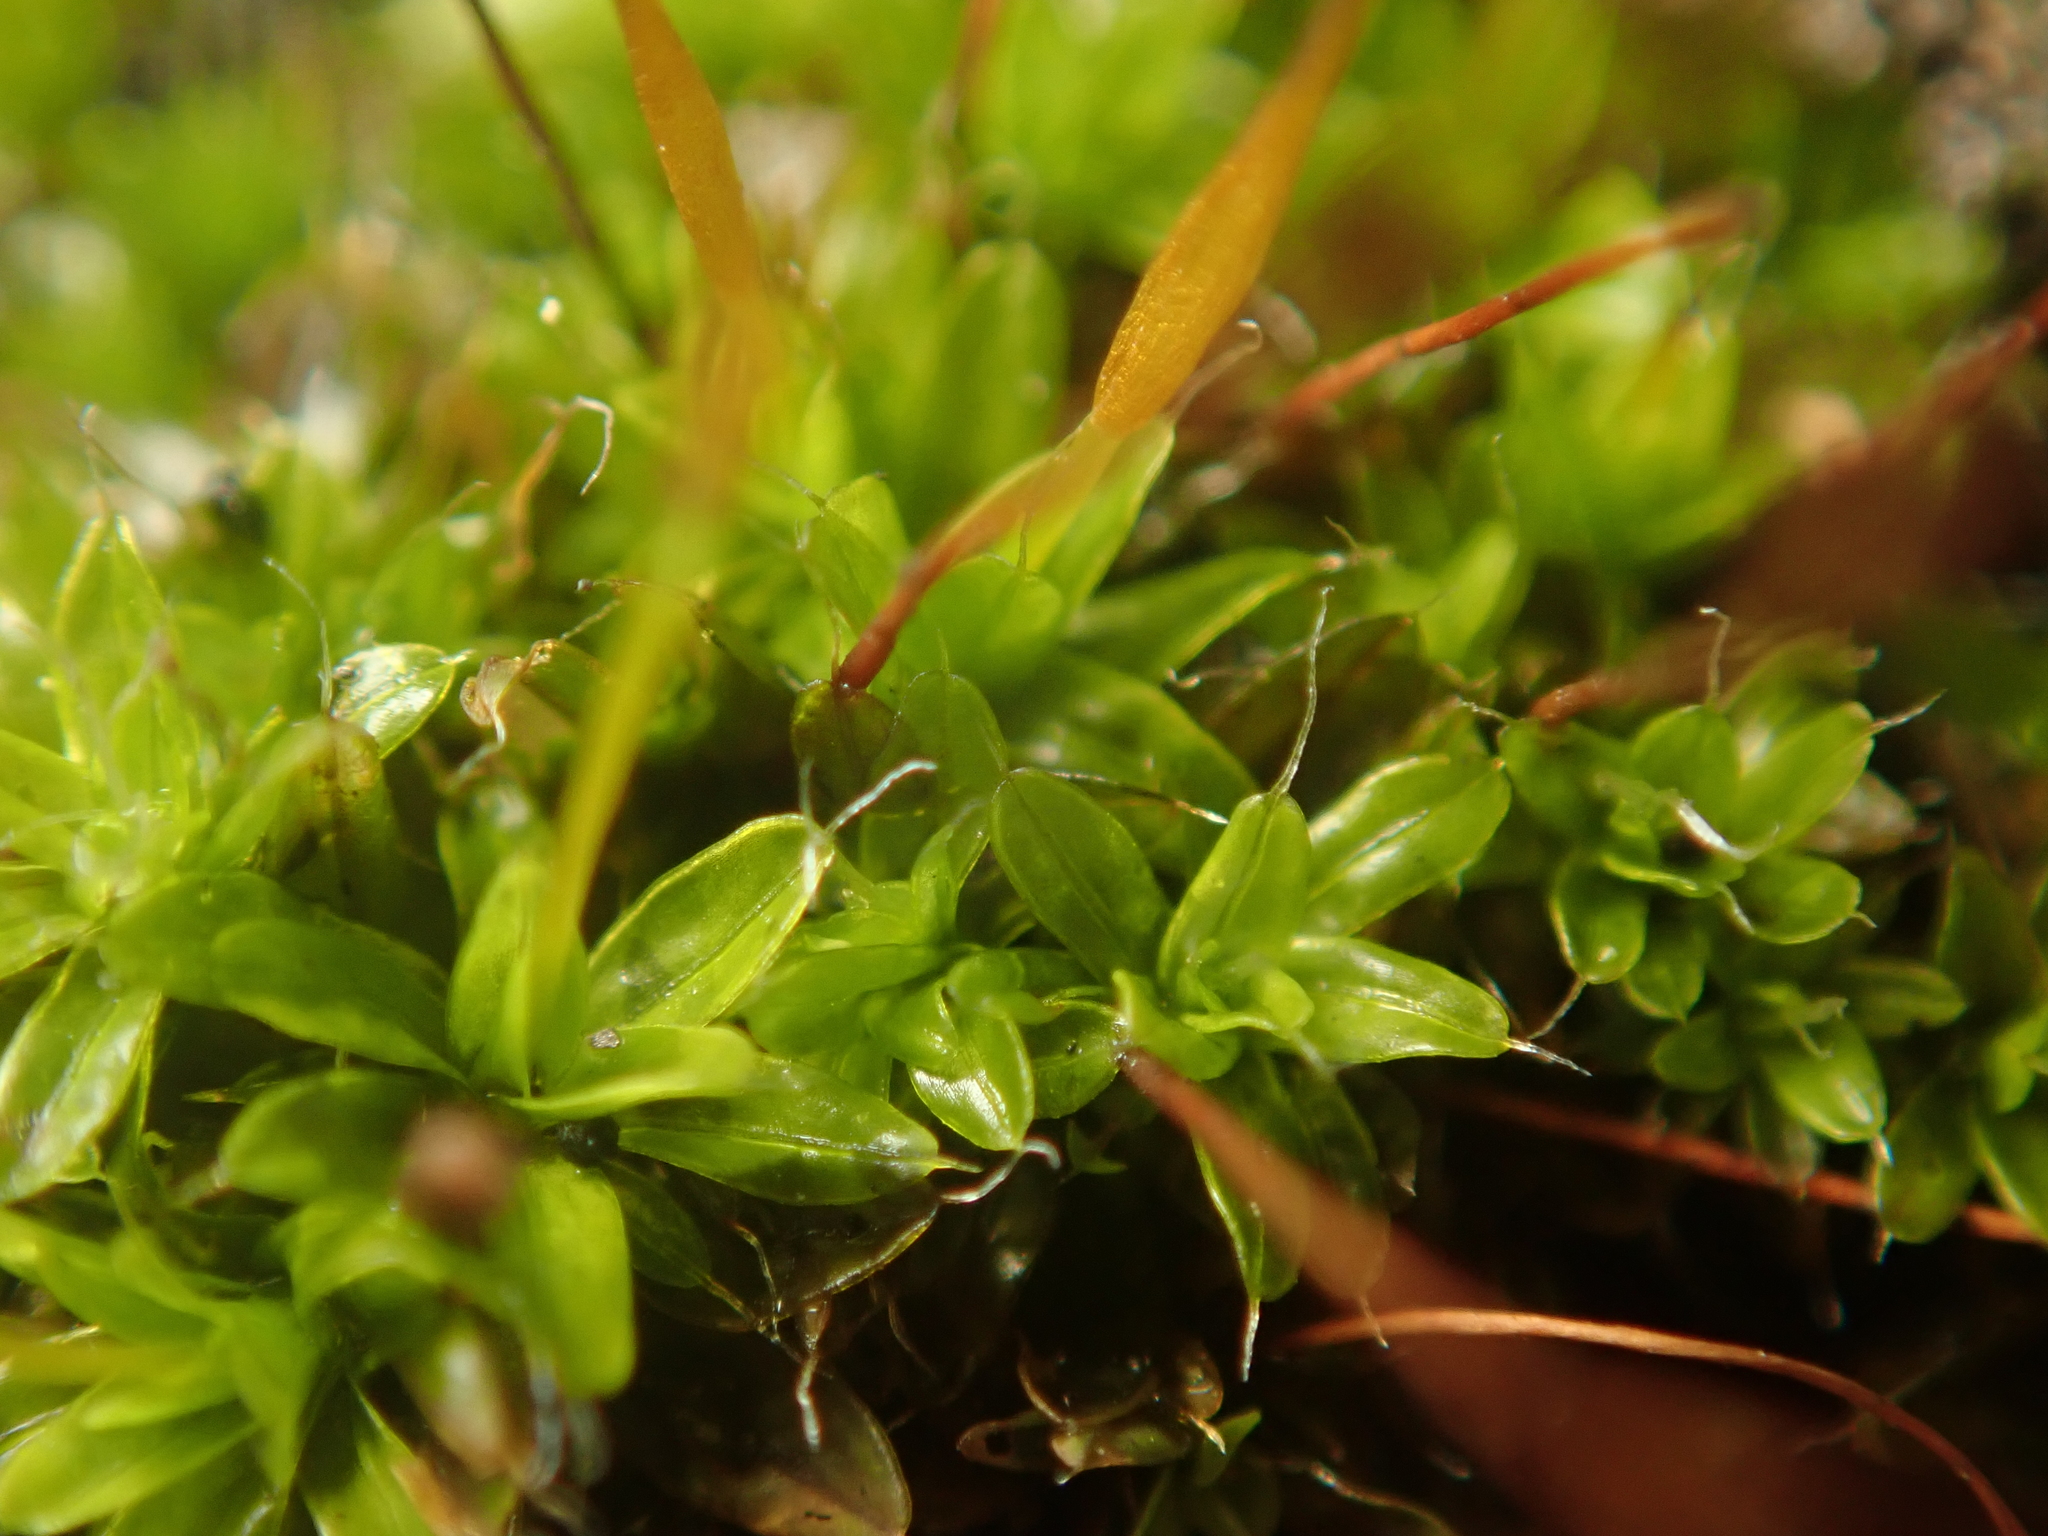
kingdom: Plantae
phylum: Bryophyta
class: Bryopsida
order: Pottiales
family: Pottiaceae
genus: Tortula
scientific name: Tortula muralis
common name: Wall screw-moss
